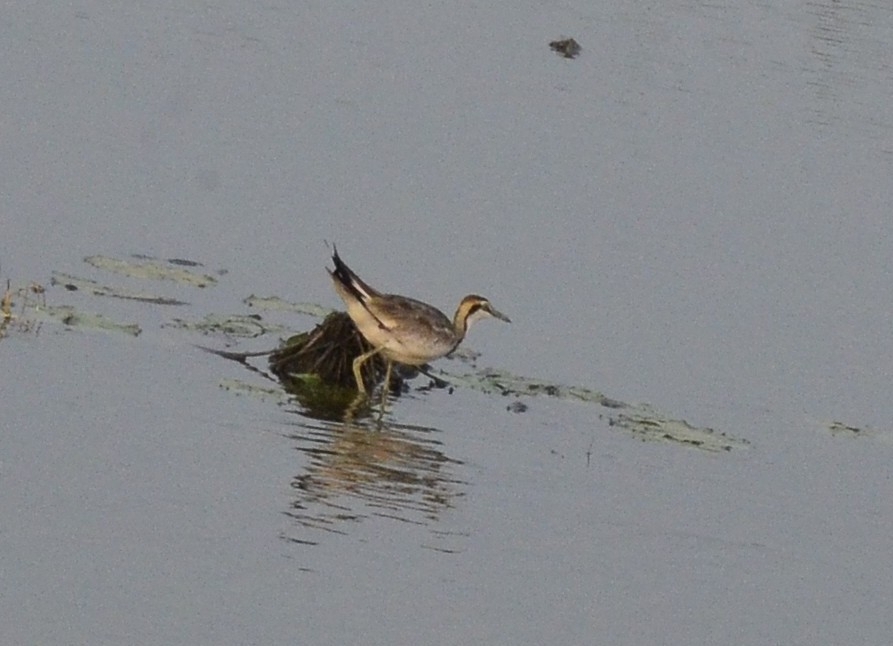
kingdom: Animalia
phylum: Chordata
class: Aves
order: Charadriiformes
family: Jacanidae
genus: Hydrophasianus
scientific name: Hydrophasianus chirurgus
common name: Pheasant-tailed jacana
